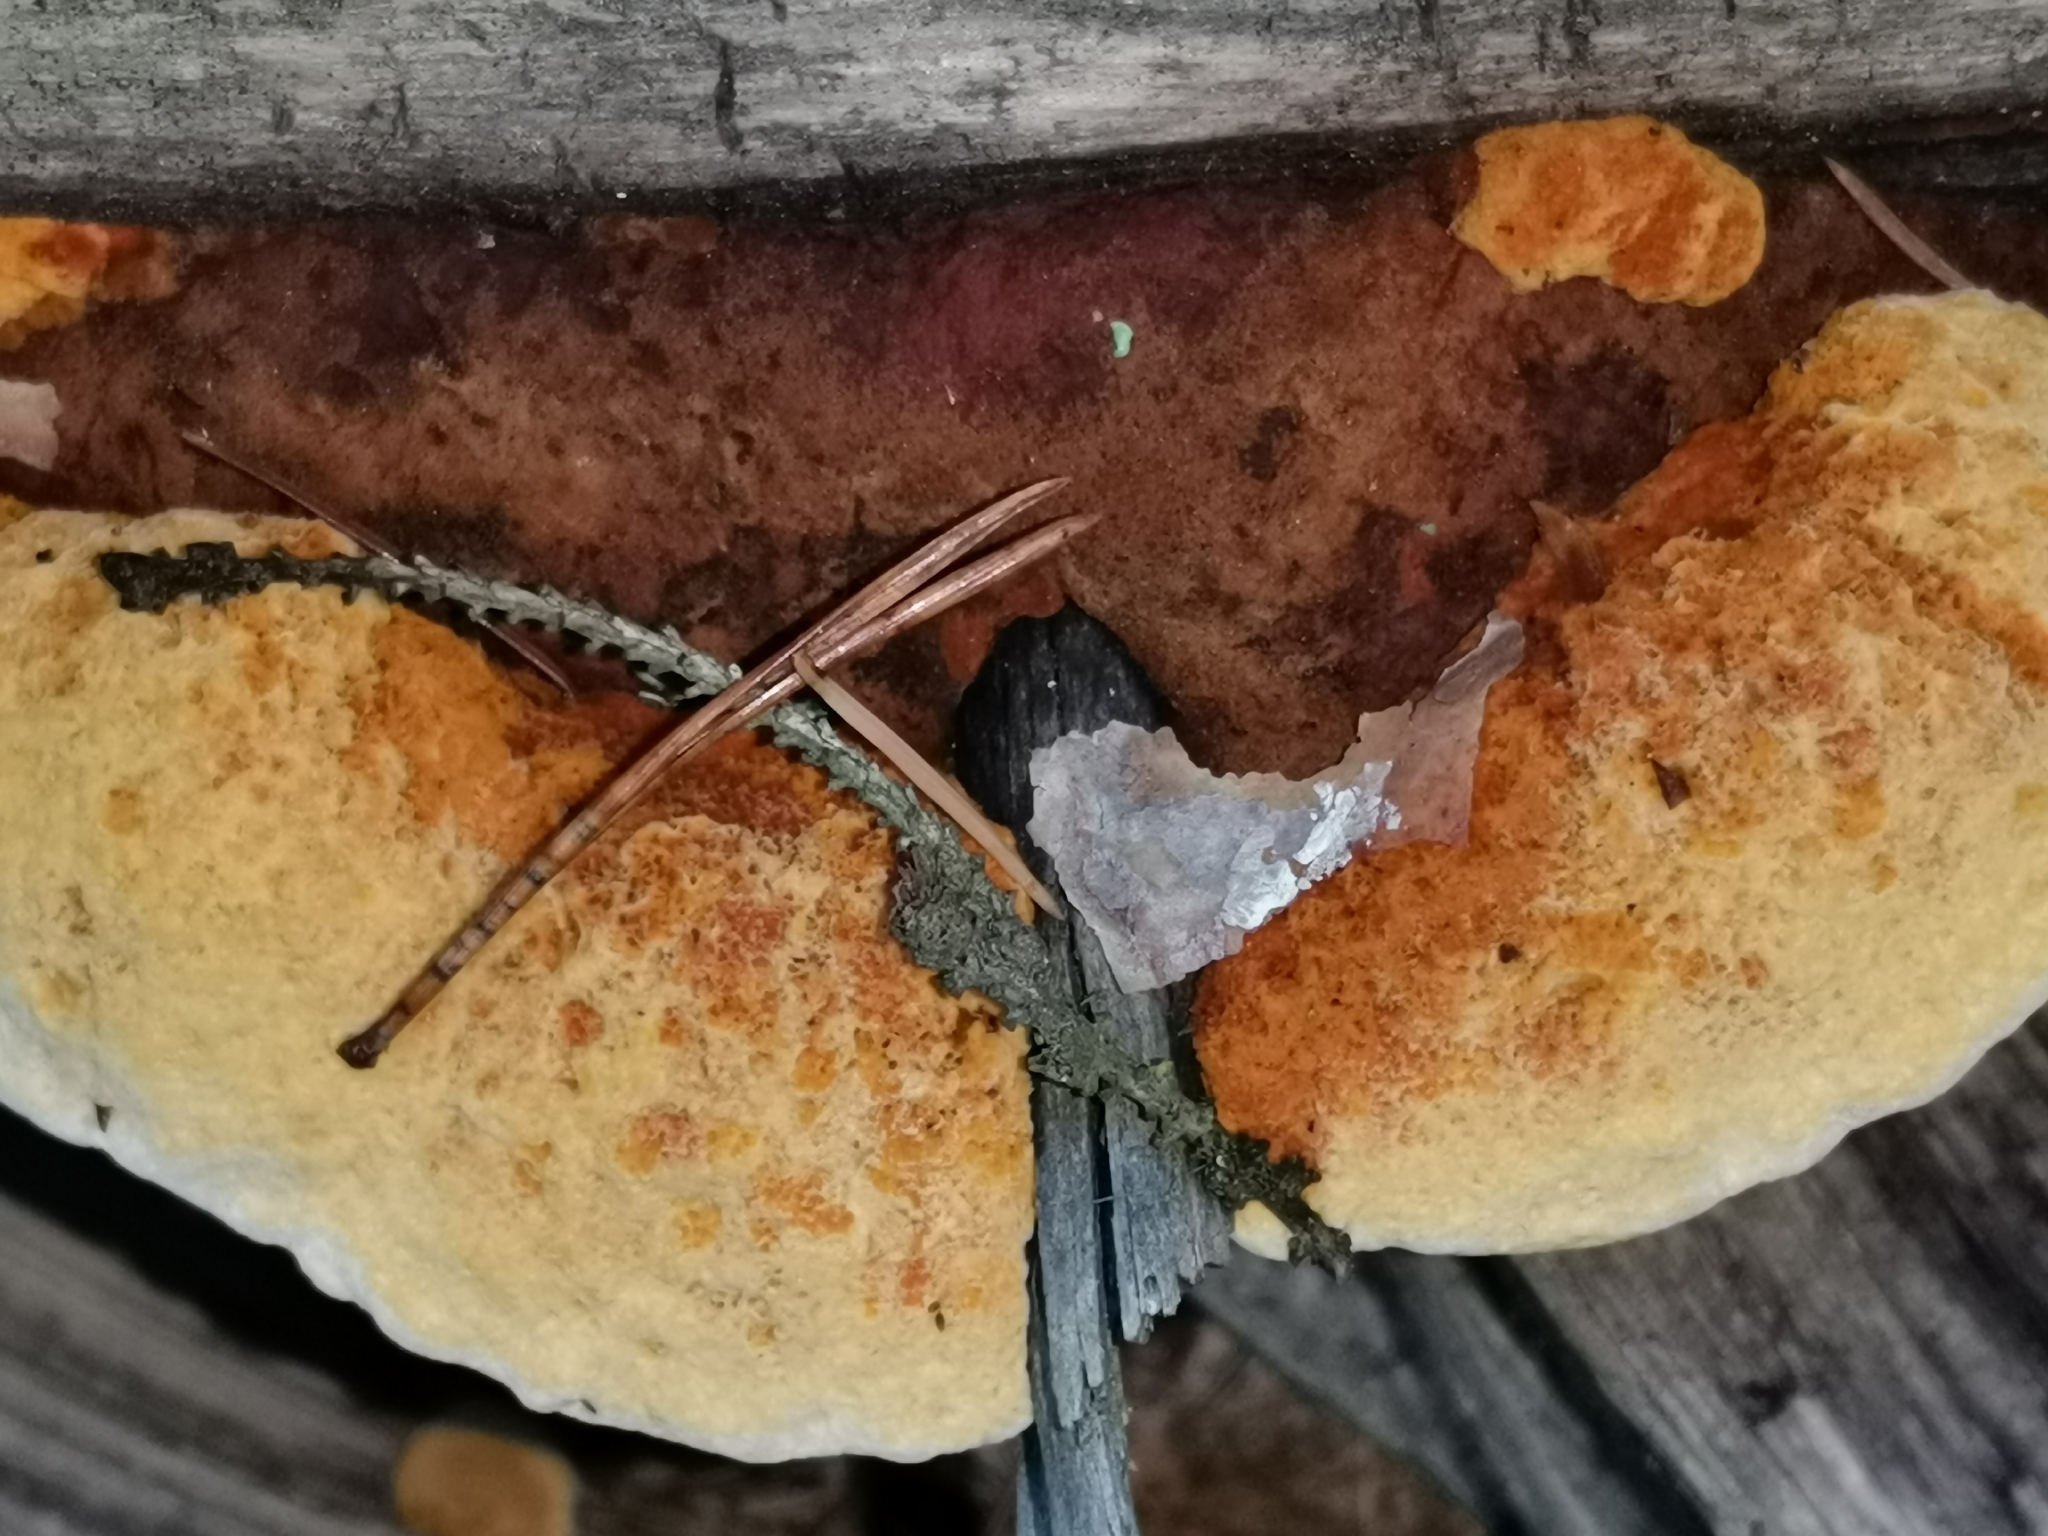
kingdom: Fungi
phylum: Basidiomycota
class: Agaricomycetes
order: Gloeophyllales
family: Gloeophyllaceae
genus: Gloeophyllum
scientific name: Gloeophyllum odoratum
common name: Anise mazegill
